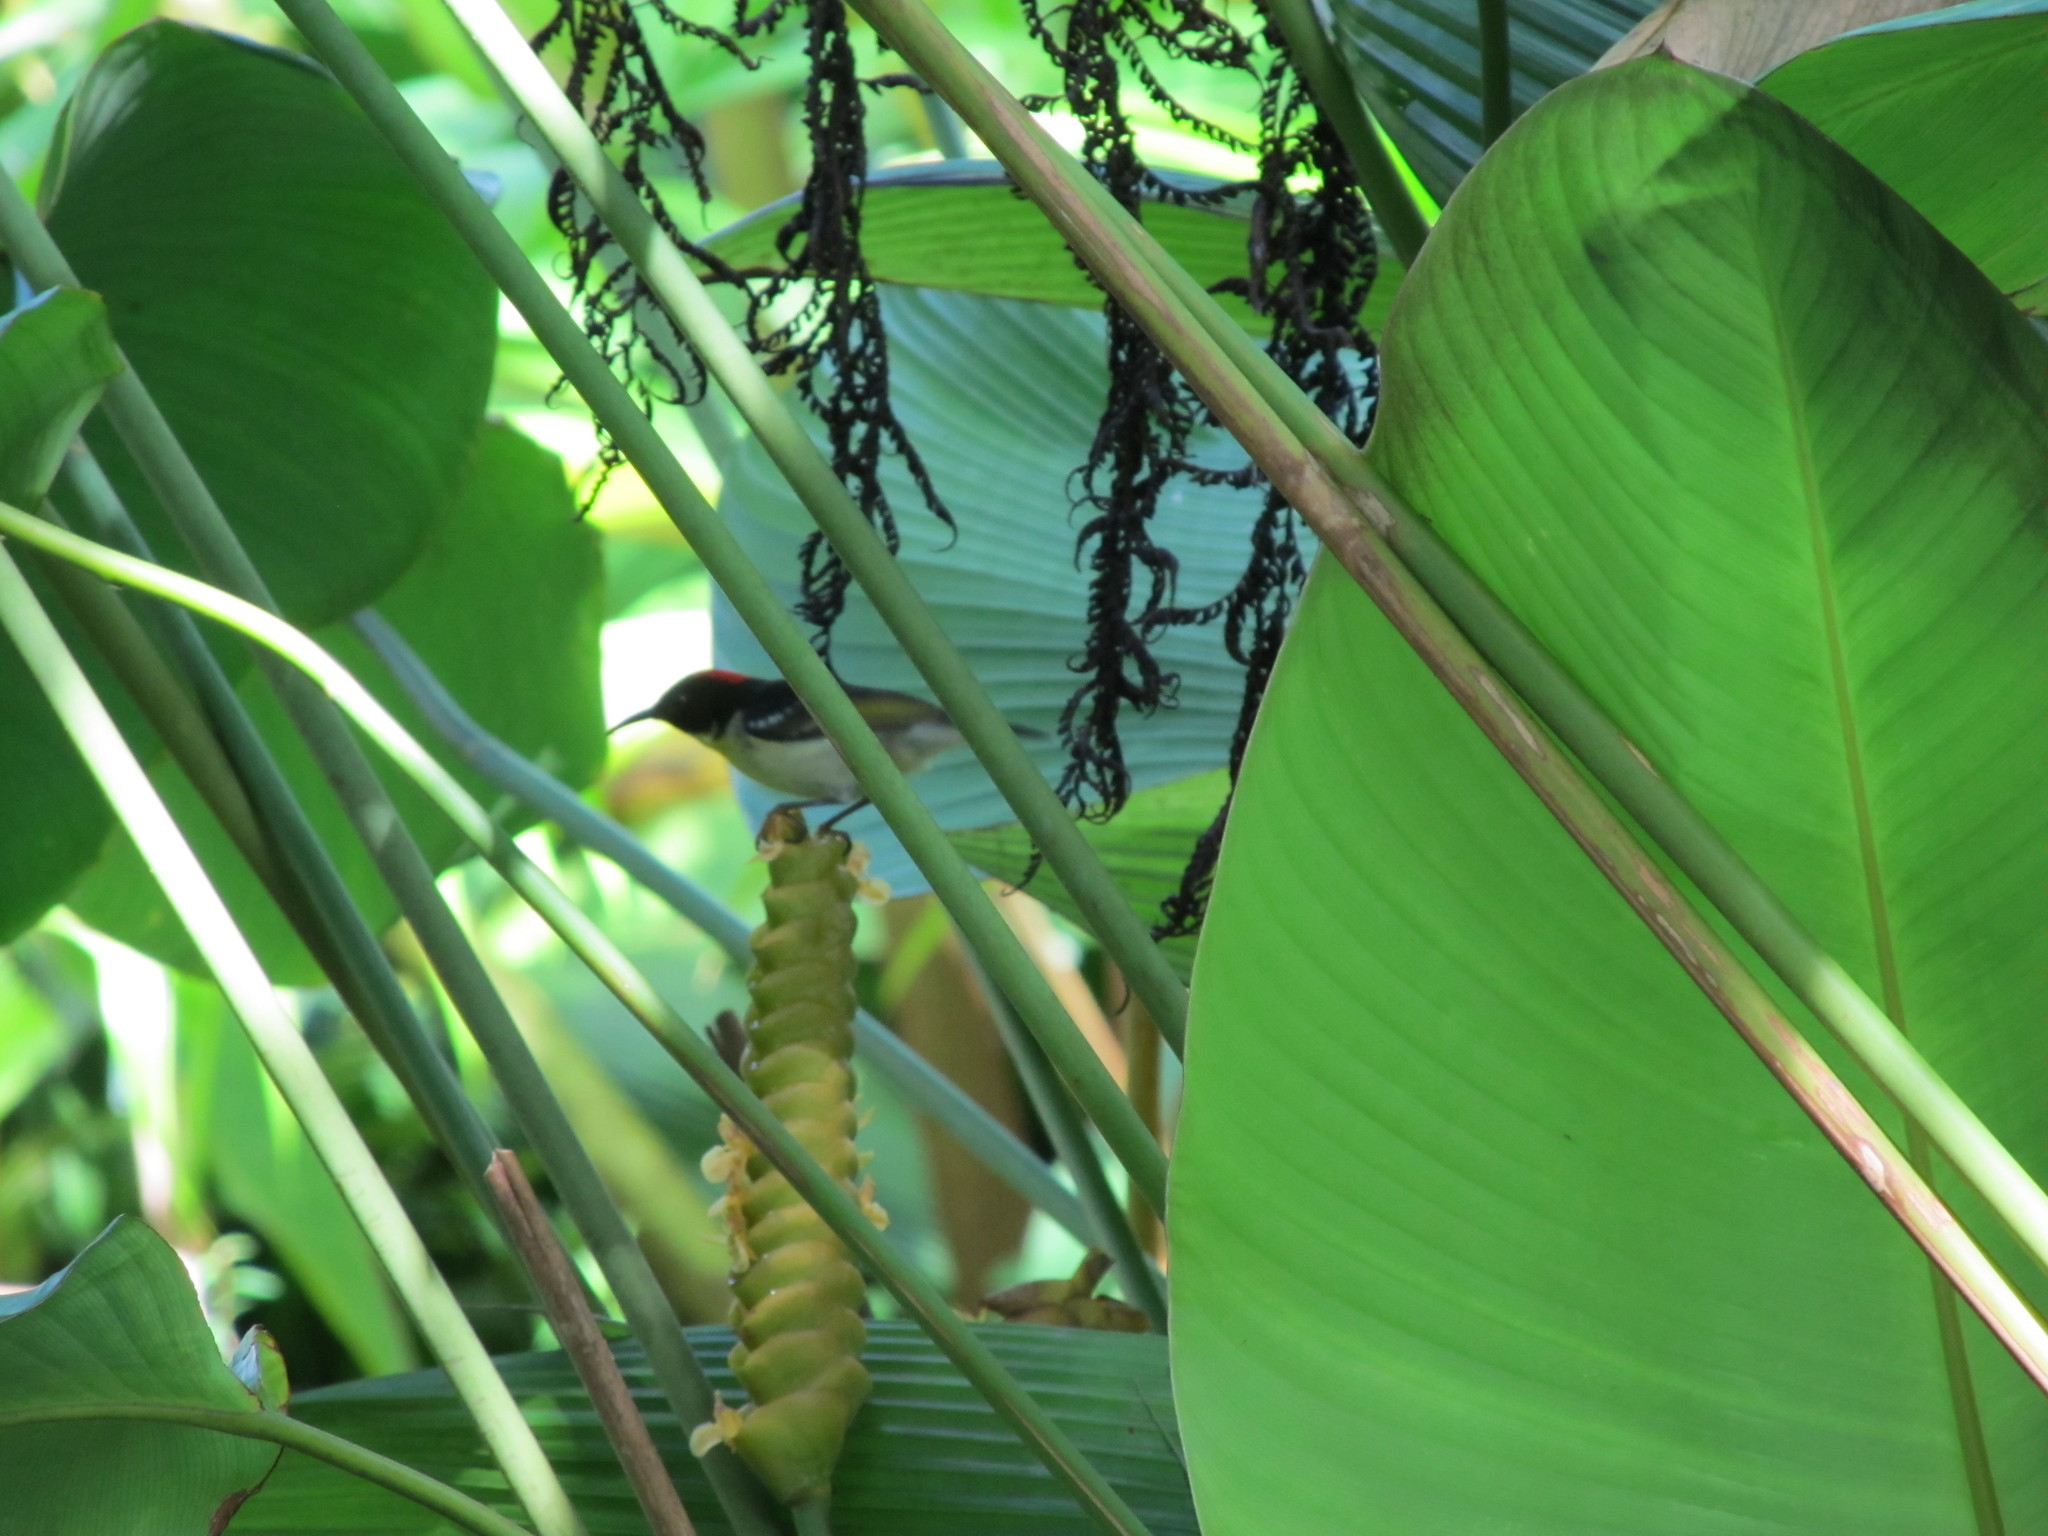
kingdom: Animalia
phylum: Chordata
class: Aves
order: Passeriformes
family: Meliphagidae
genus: Myzomela
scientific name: Myzomela jugularis
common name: Sulphur-breasted myzomela
